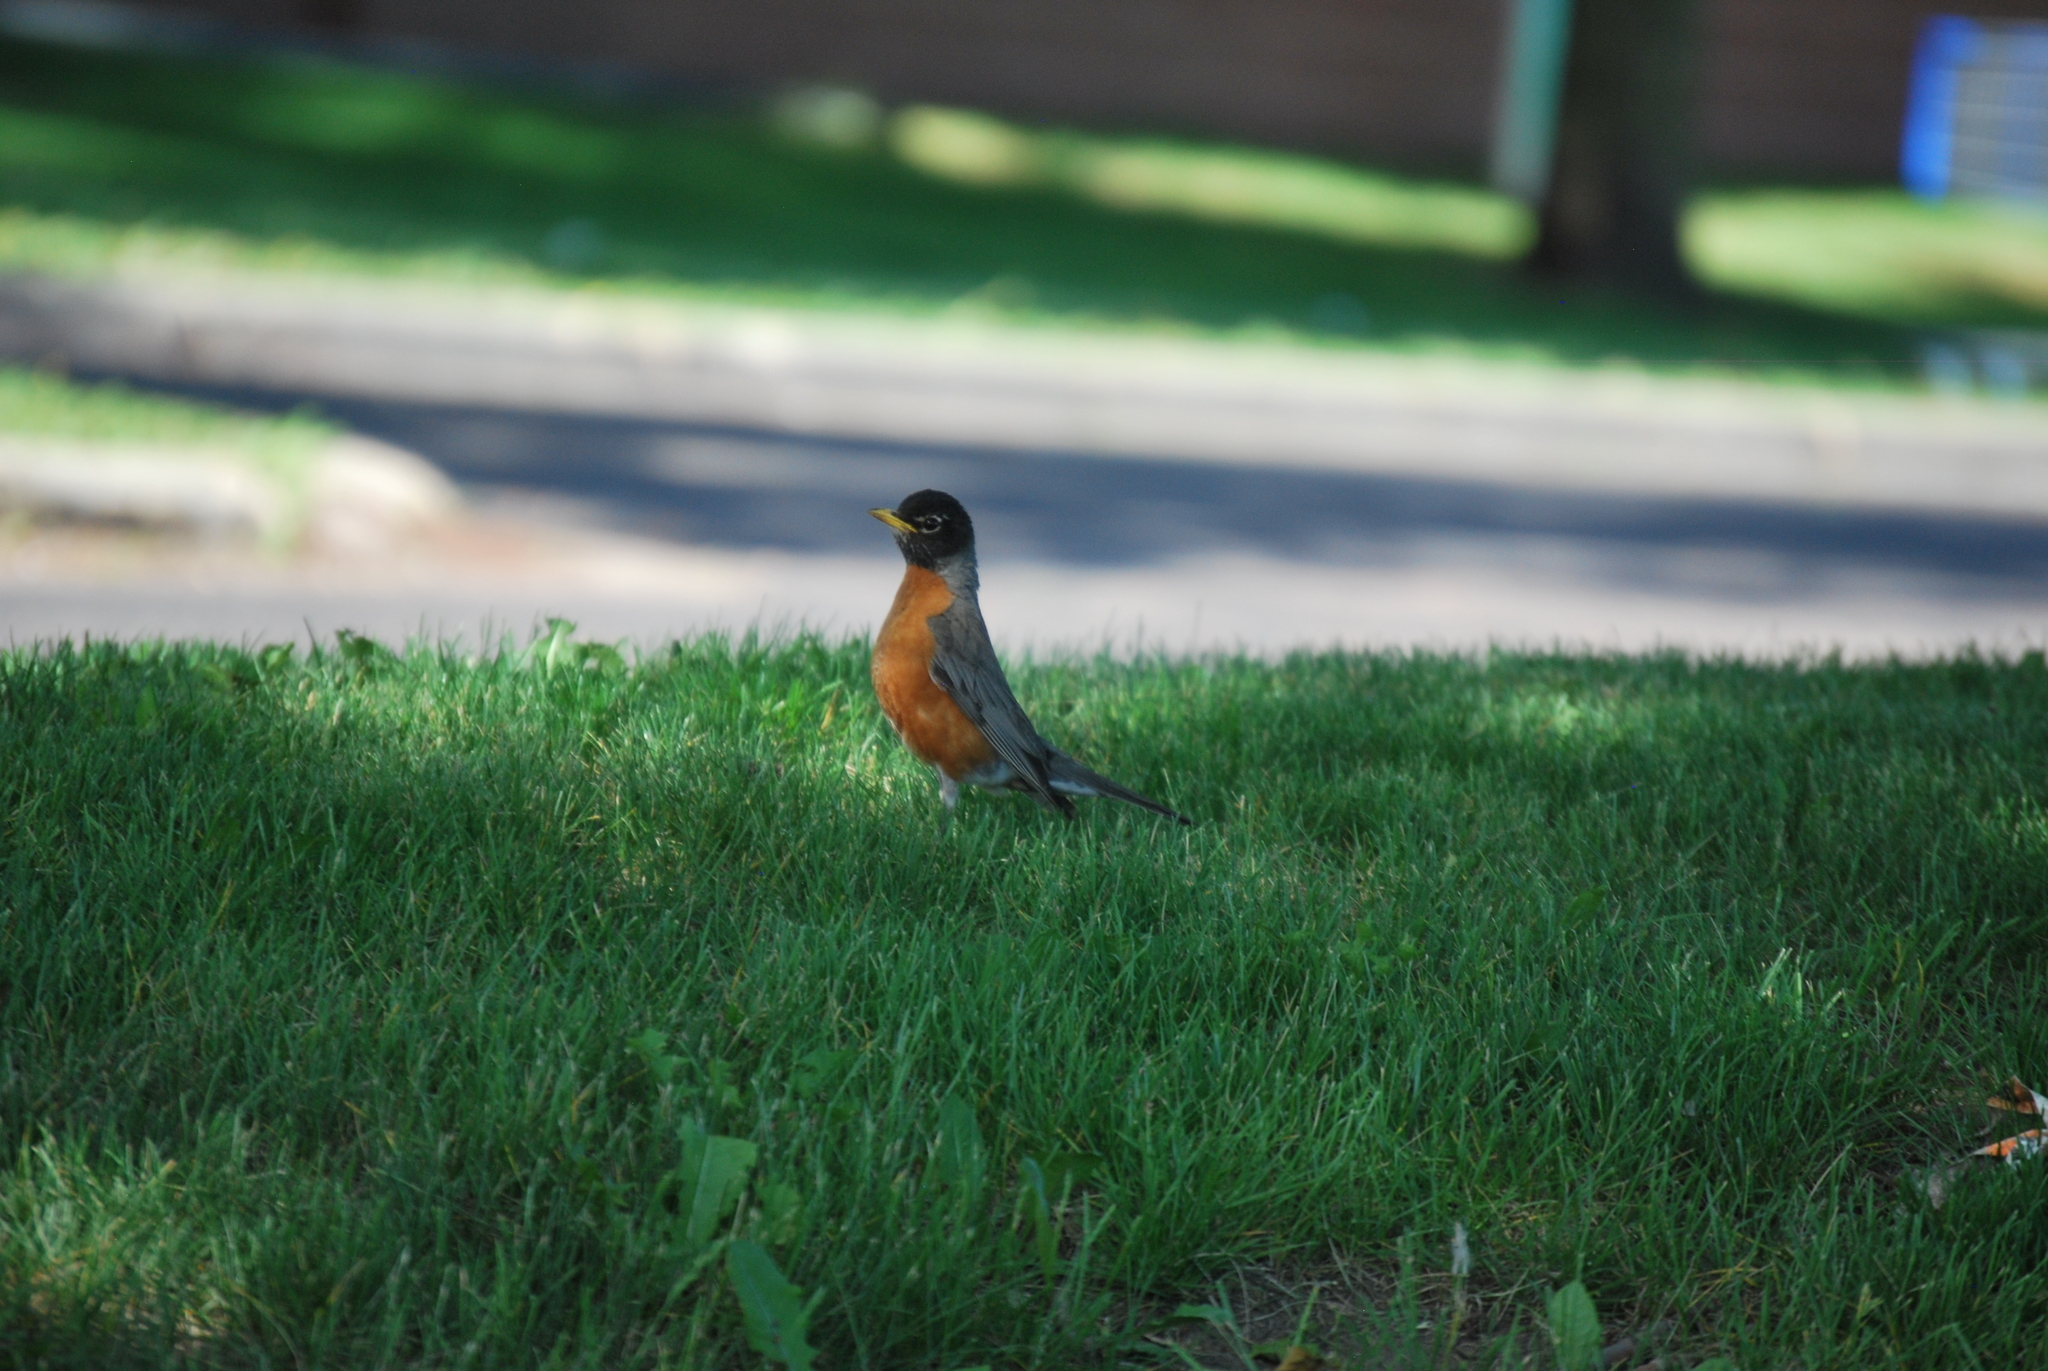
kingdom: Animalia
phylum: Chordata
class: Aves
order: Passeriformes
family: Turdidae
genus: Turdus
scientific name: Turdus migratorius
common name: American robin
